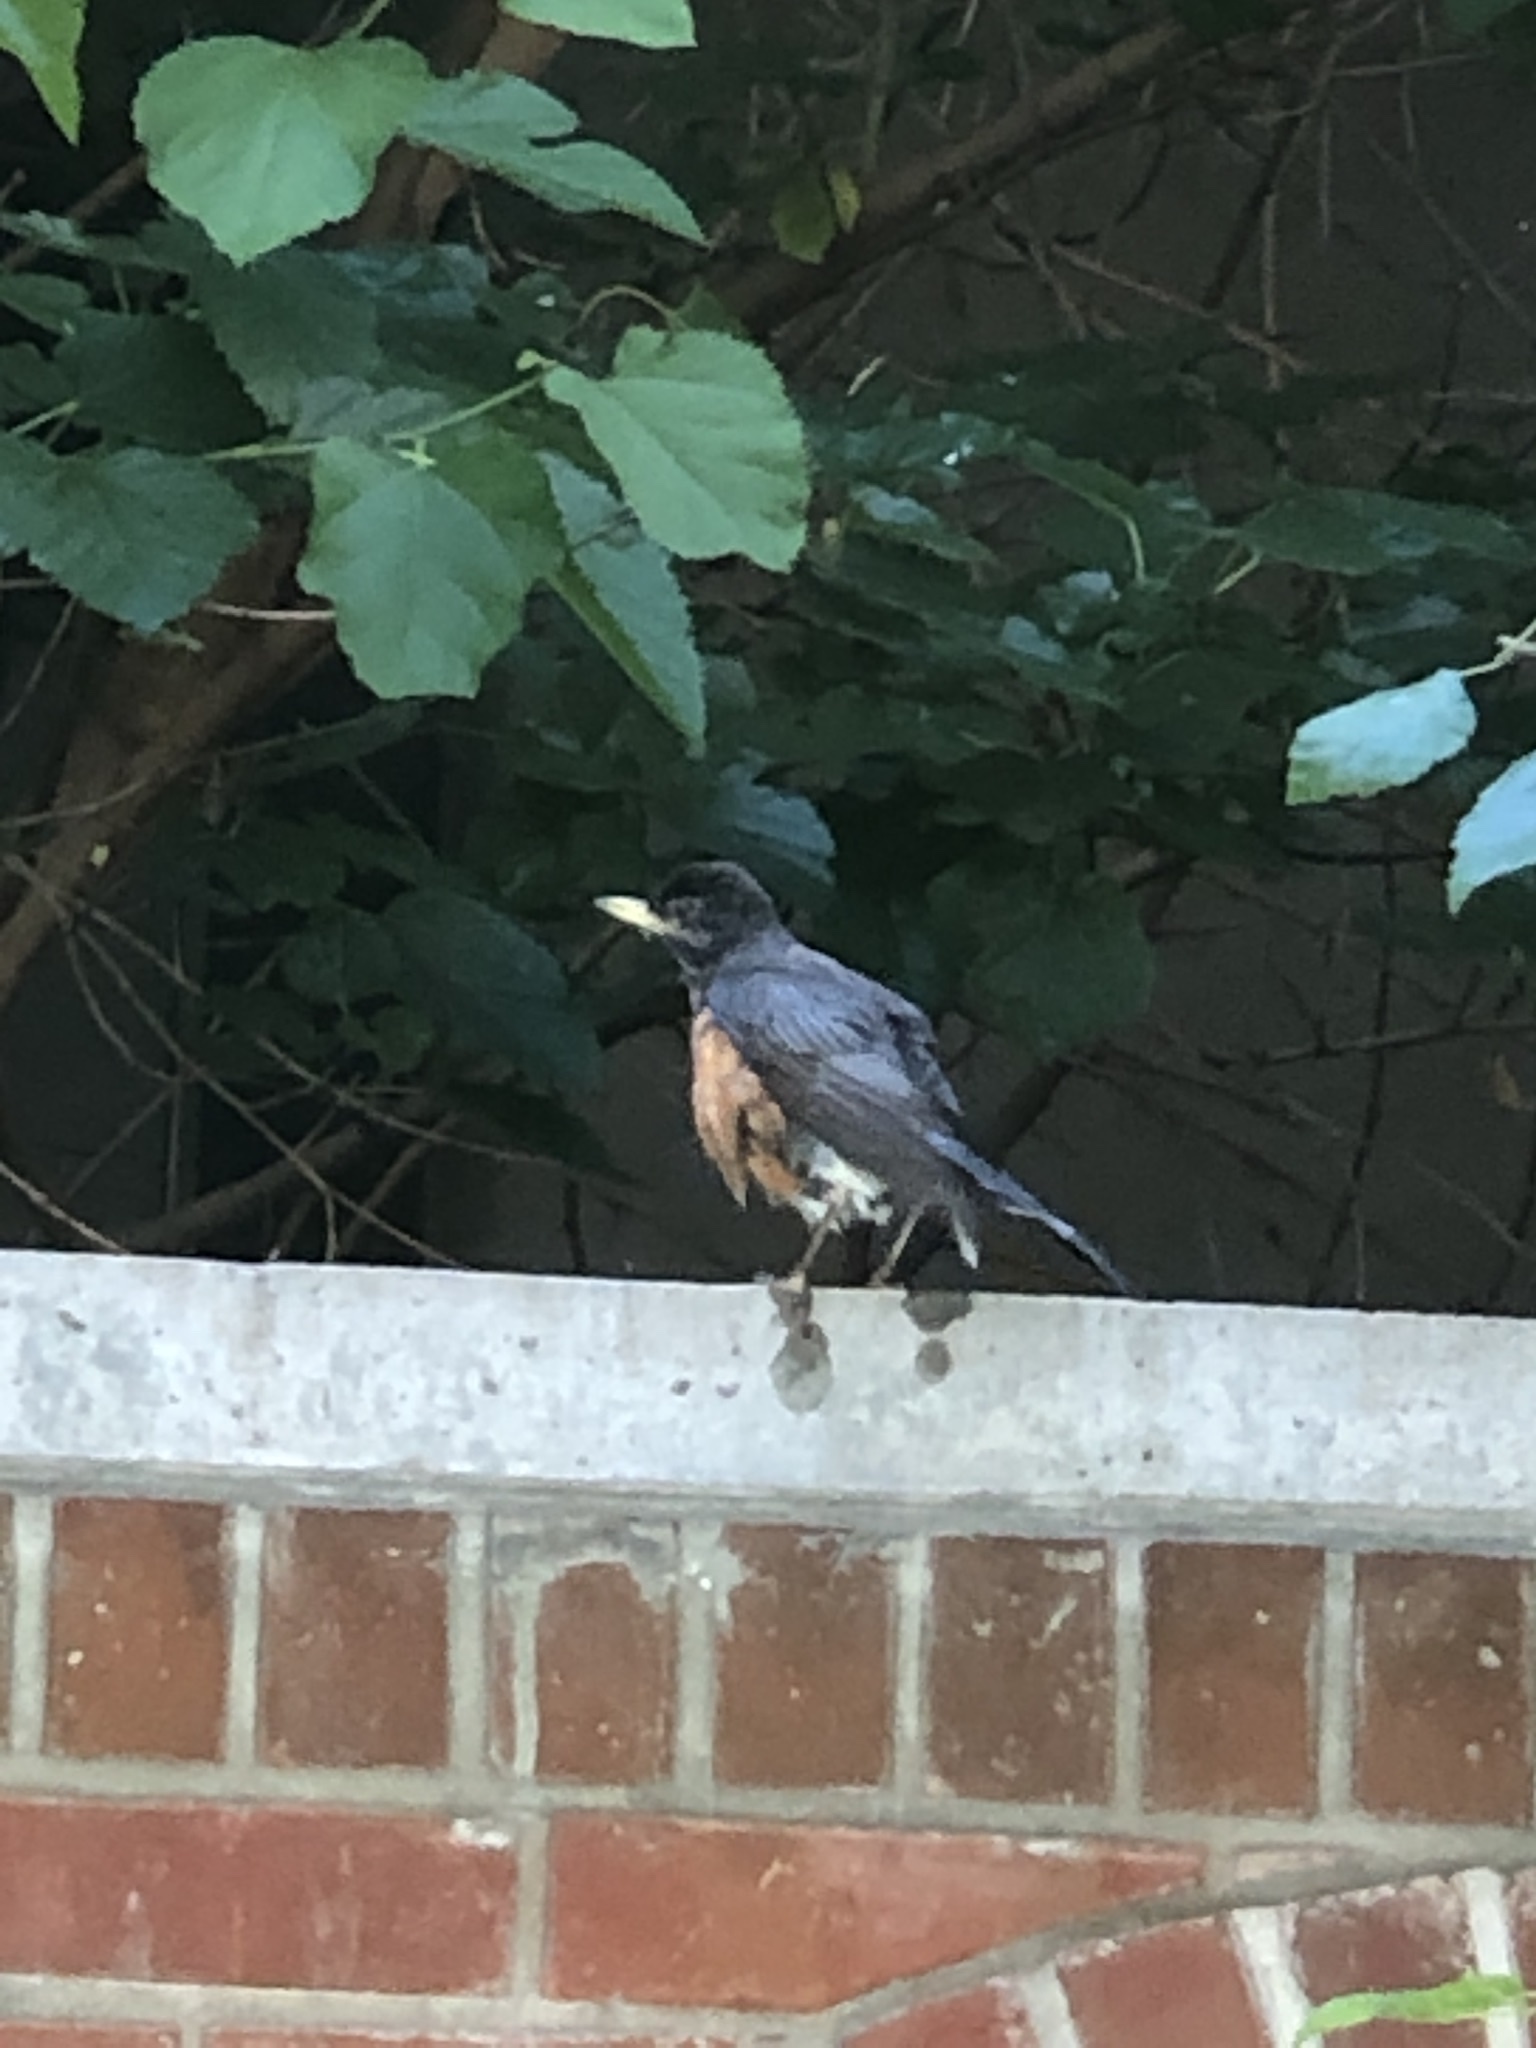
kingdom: Animalia
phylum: Chordata
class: Aves
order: Passeriformes
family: Turdidae
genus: Turdus
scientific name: Turdus migratorius
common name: American robin
